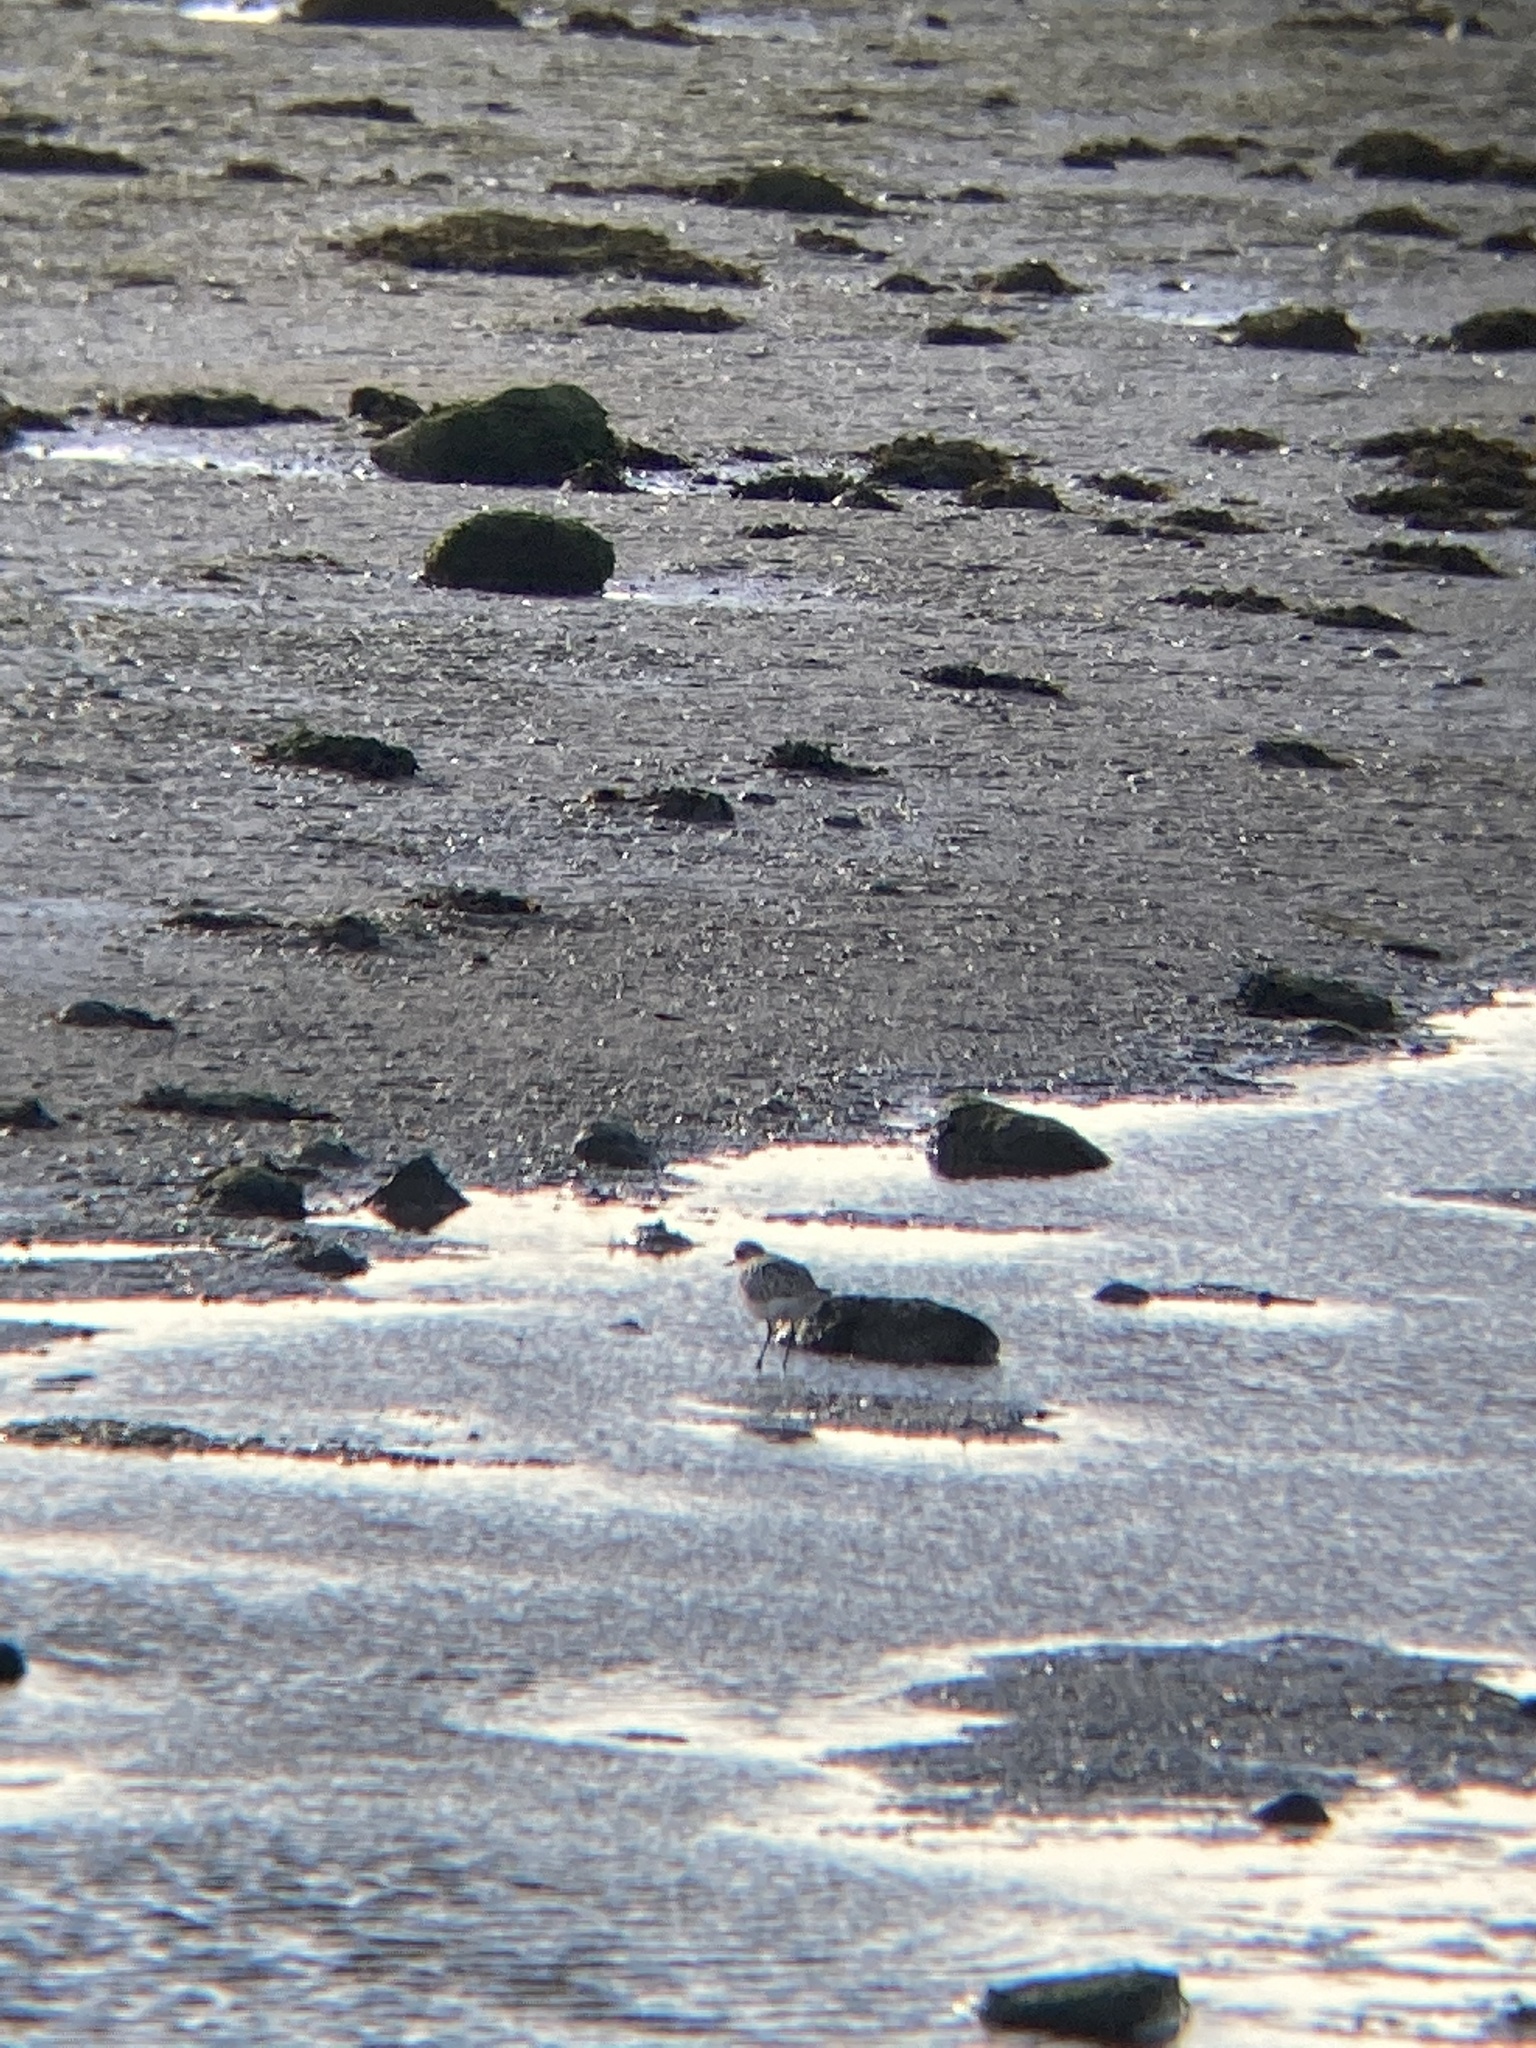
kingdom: Animalia
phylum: Chordata
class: Aves
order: Charadriiformes
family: Charadriidae
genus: Pluvialis
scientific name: Pluvialis squatarola
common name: Grey plover
